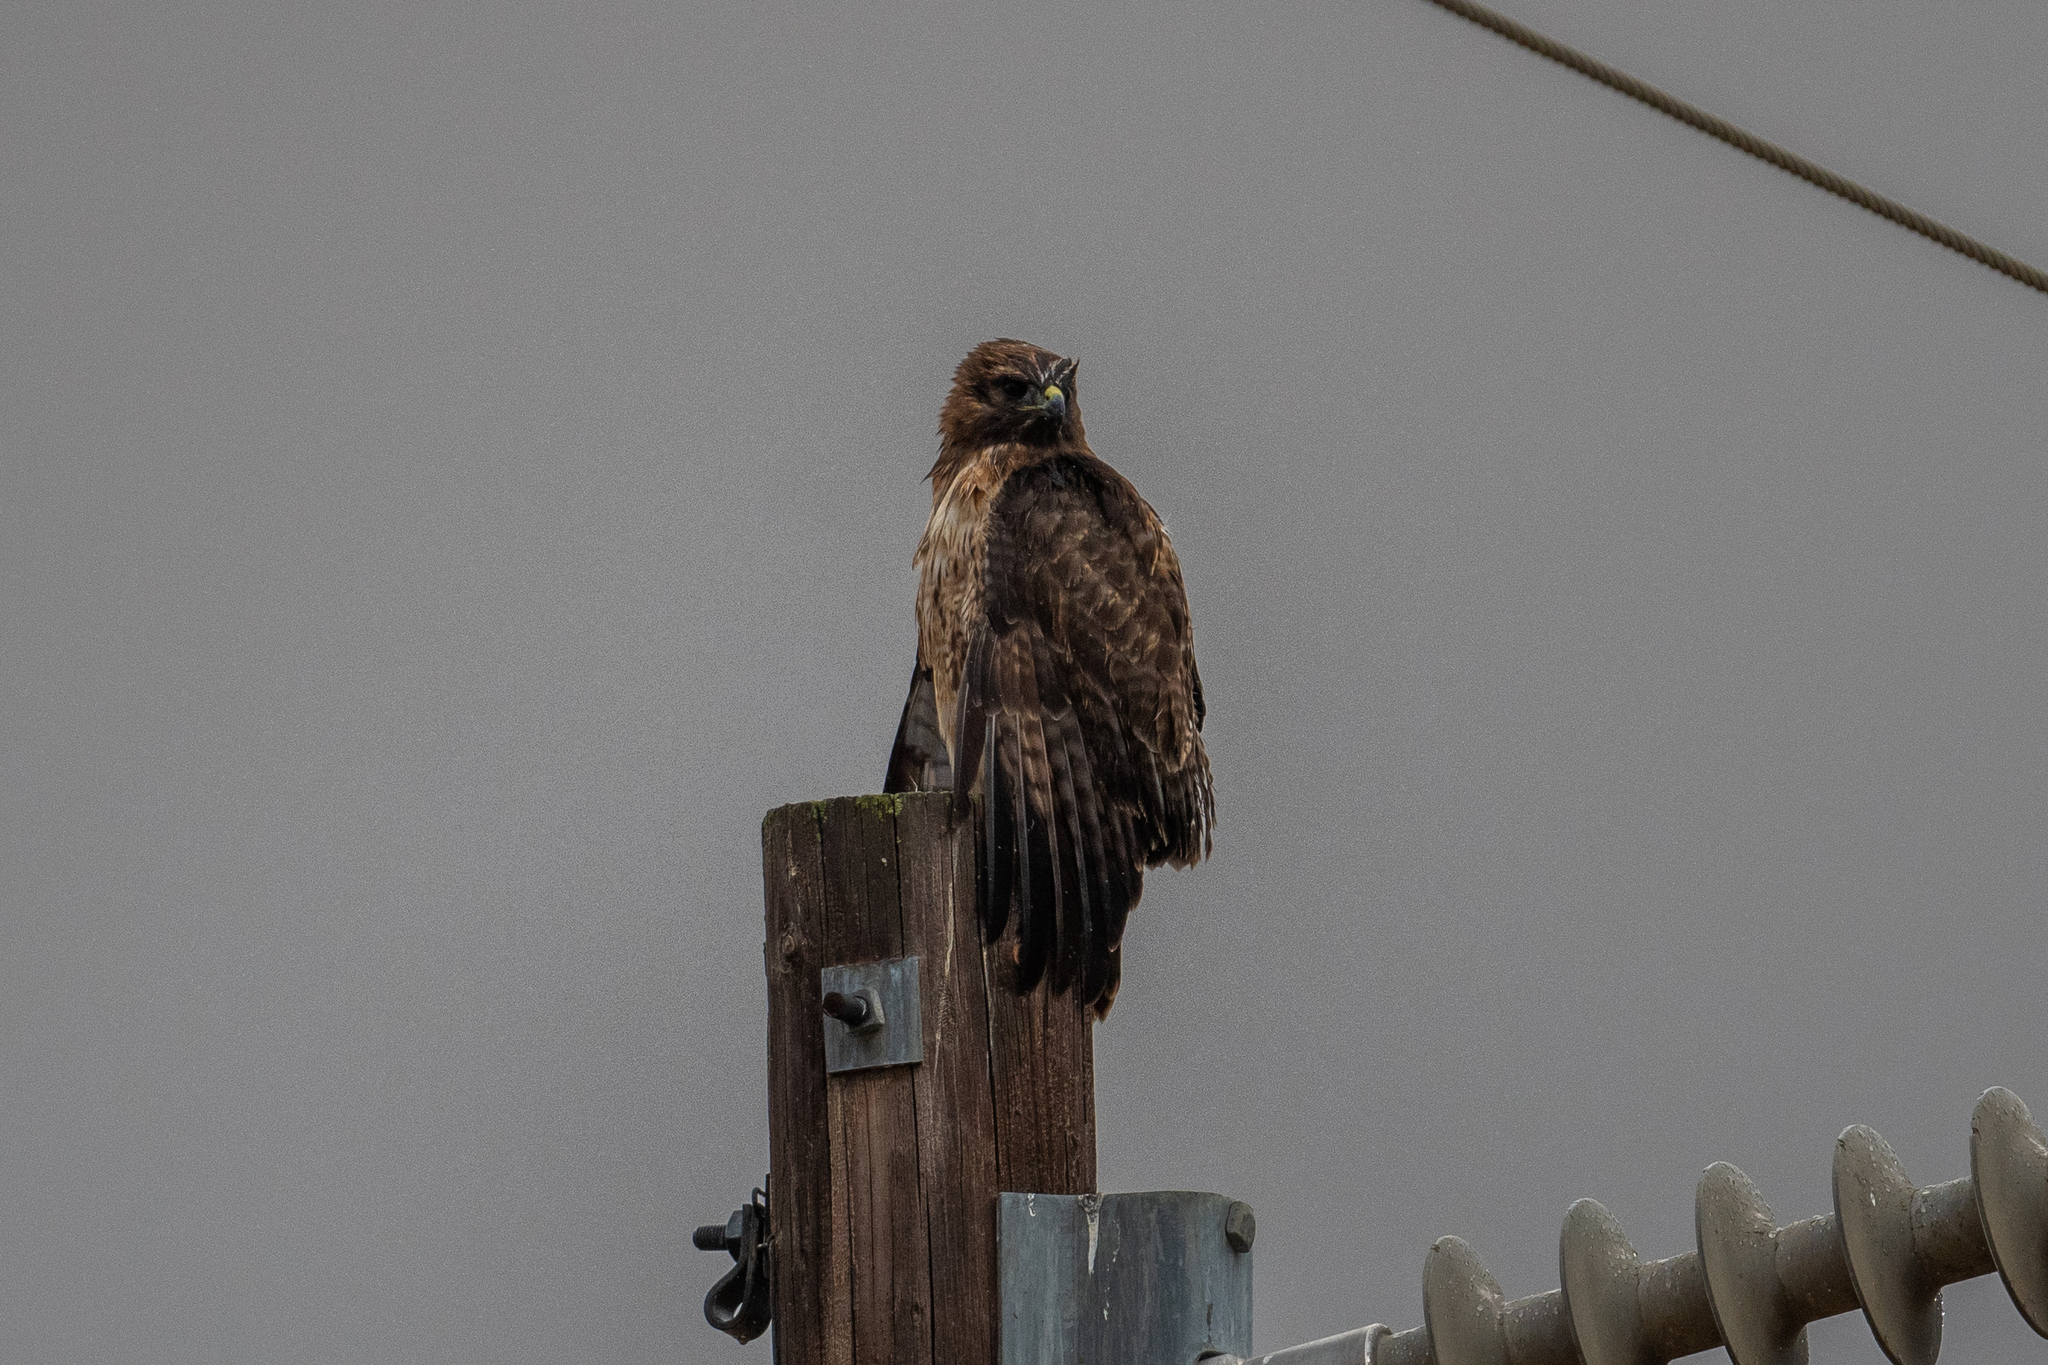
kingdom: Animalia
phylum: Chordata
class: Aves
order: Accipitriformes
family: Accipitridae
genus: Buteo
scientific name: Buteo jamaicensis
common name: Red-tailed hawk
